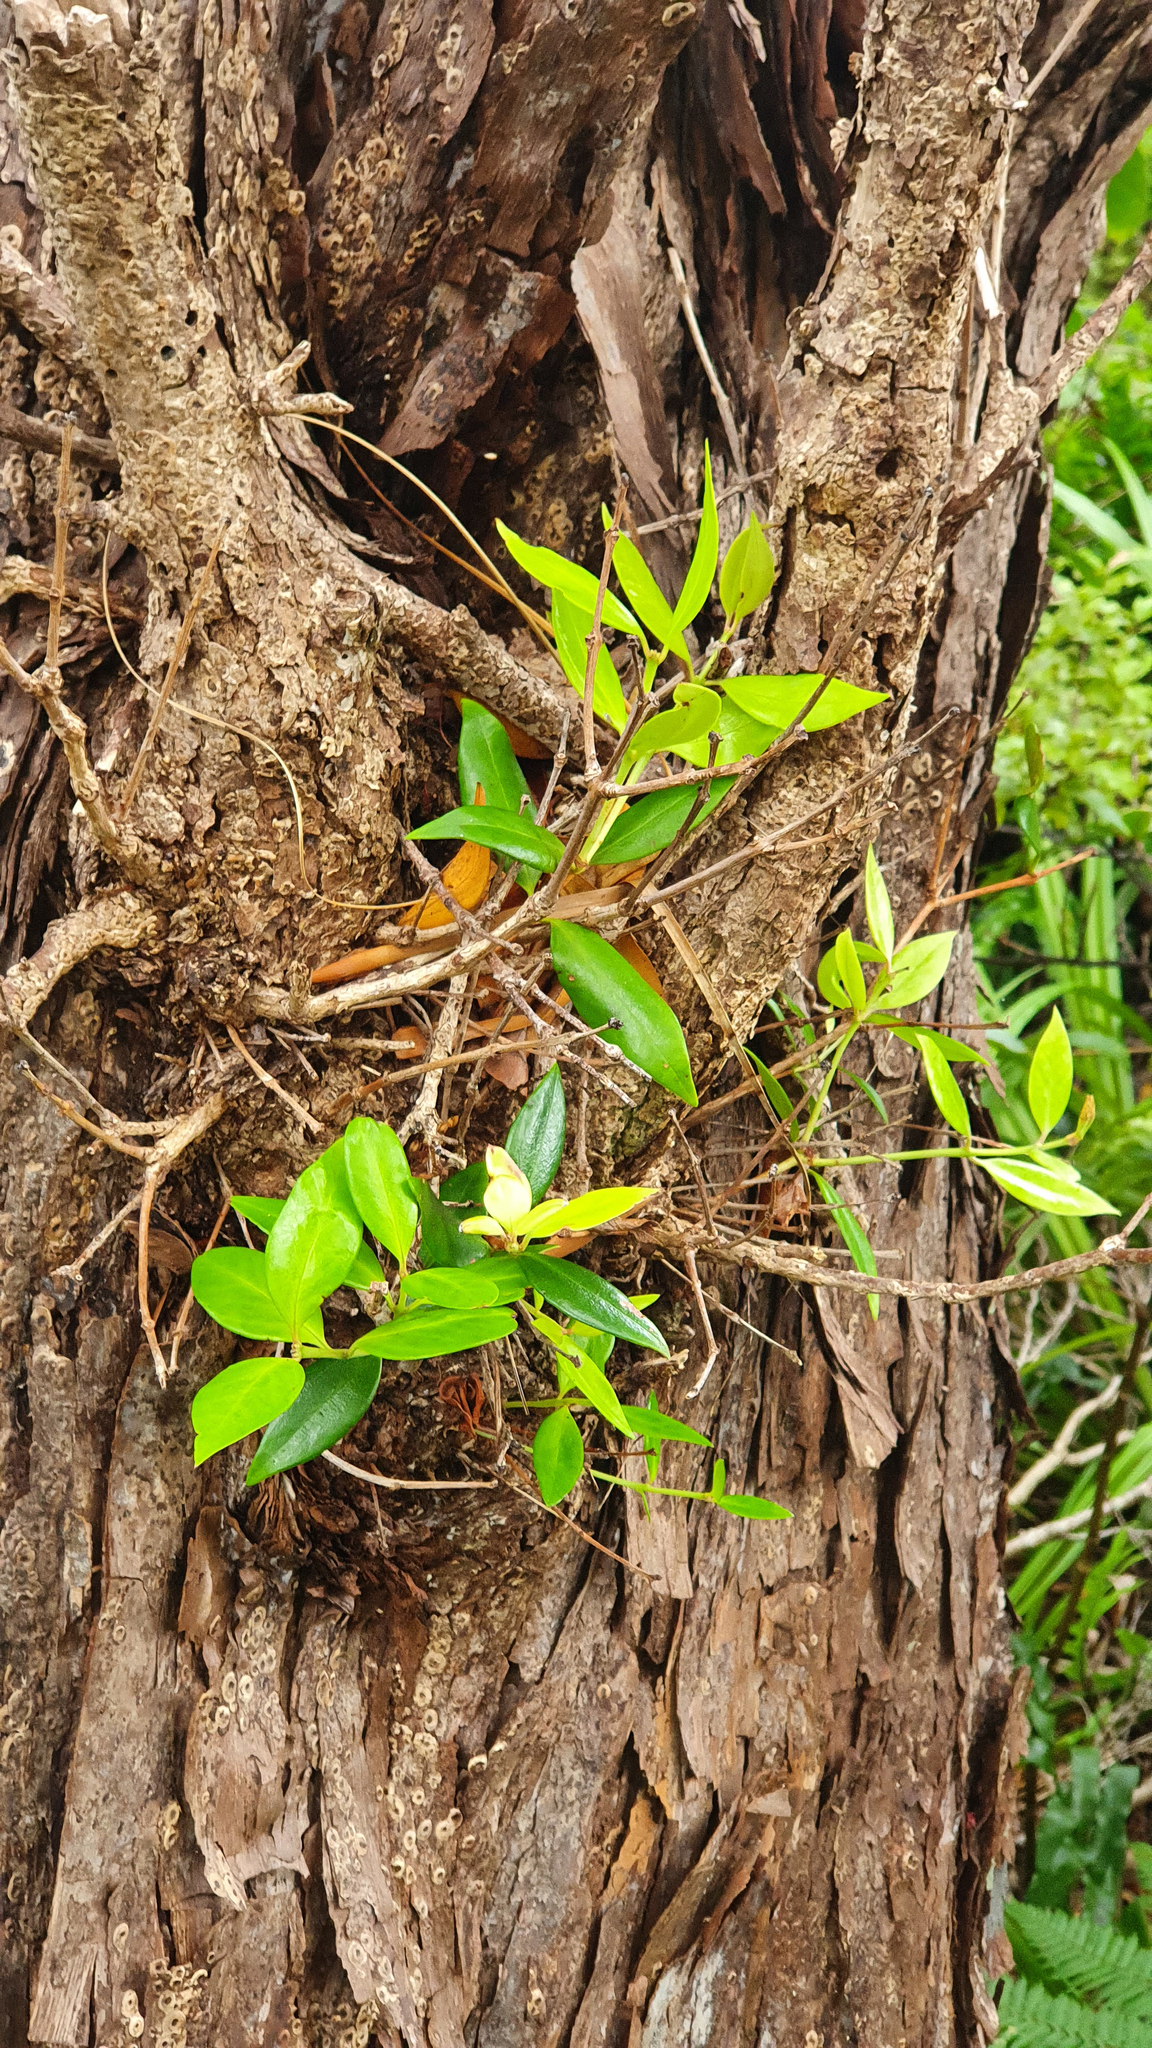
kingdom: Plantae
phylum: Tracheophyta
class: Magnoliopsida
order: Myrtales
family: Myrtaceae
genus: Metrosideros
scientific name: Metrosideros umbellata
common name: Southern rata
